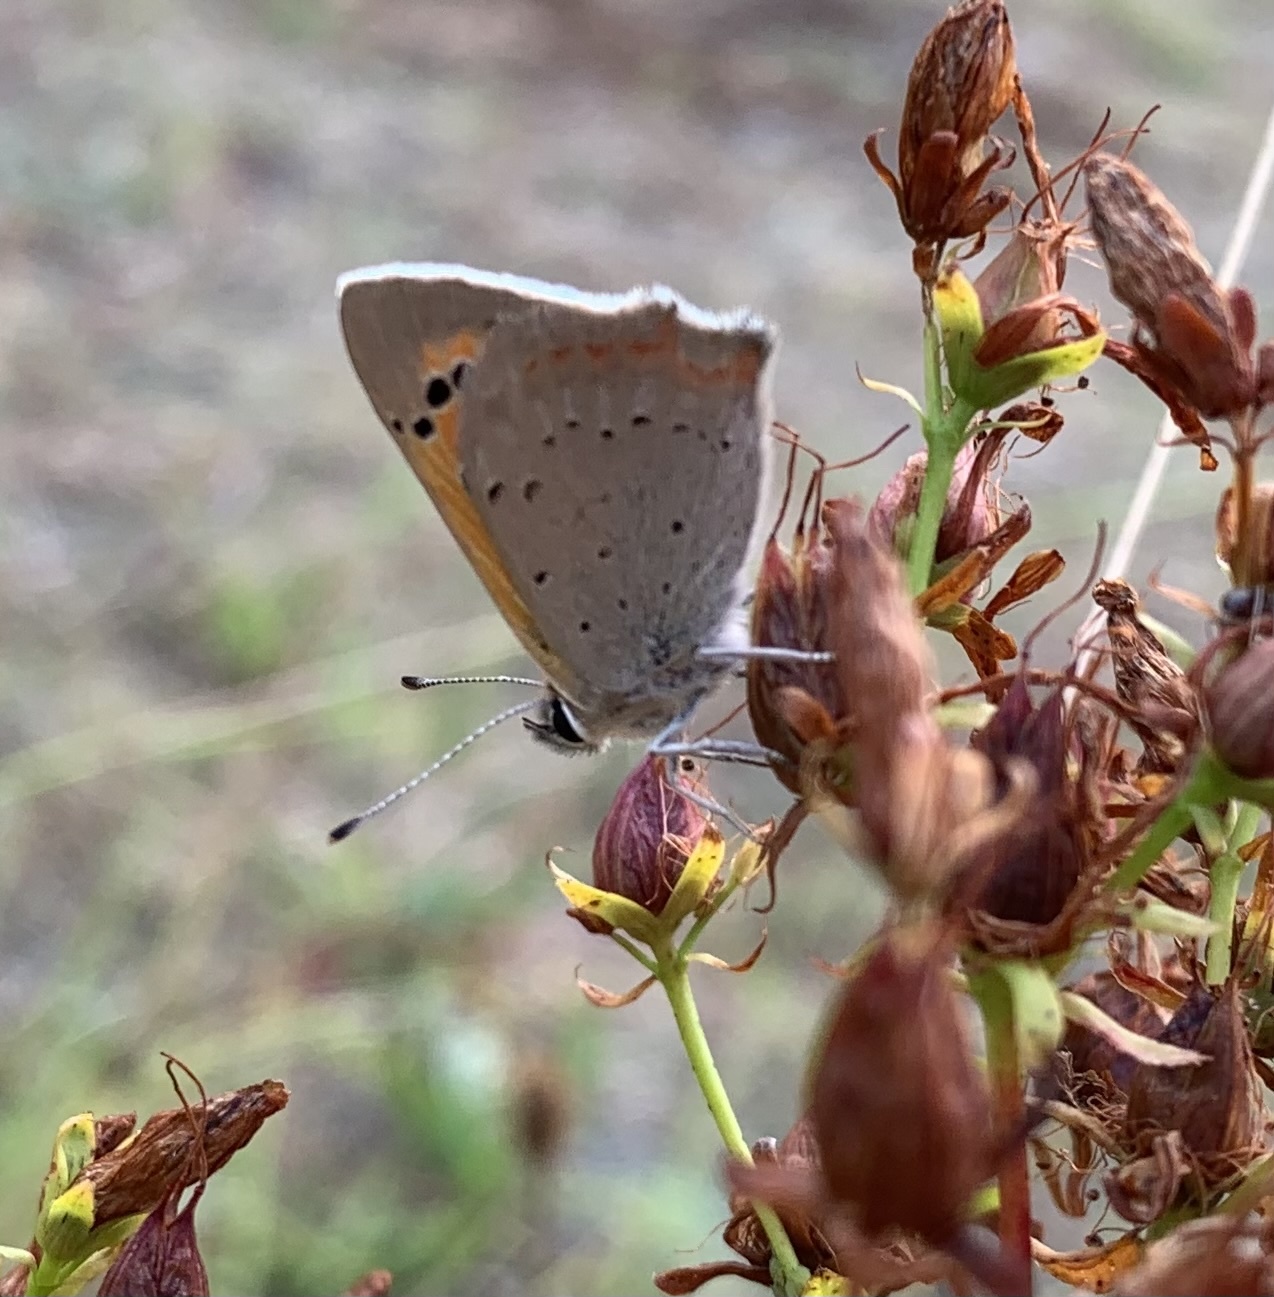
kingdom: Animalia
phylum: Arthropoda
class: Insecta
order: Lepidoptera
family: Lycaenidae
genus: Lycaena
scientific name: Lycaena phlaeas
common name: Small copper
